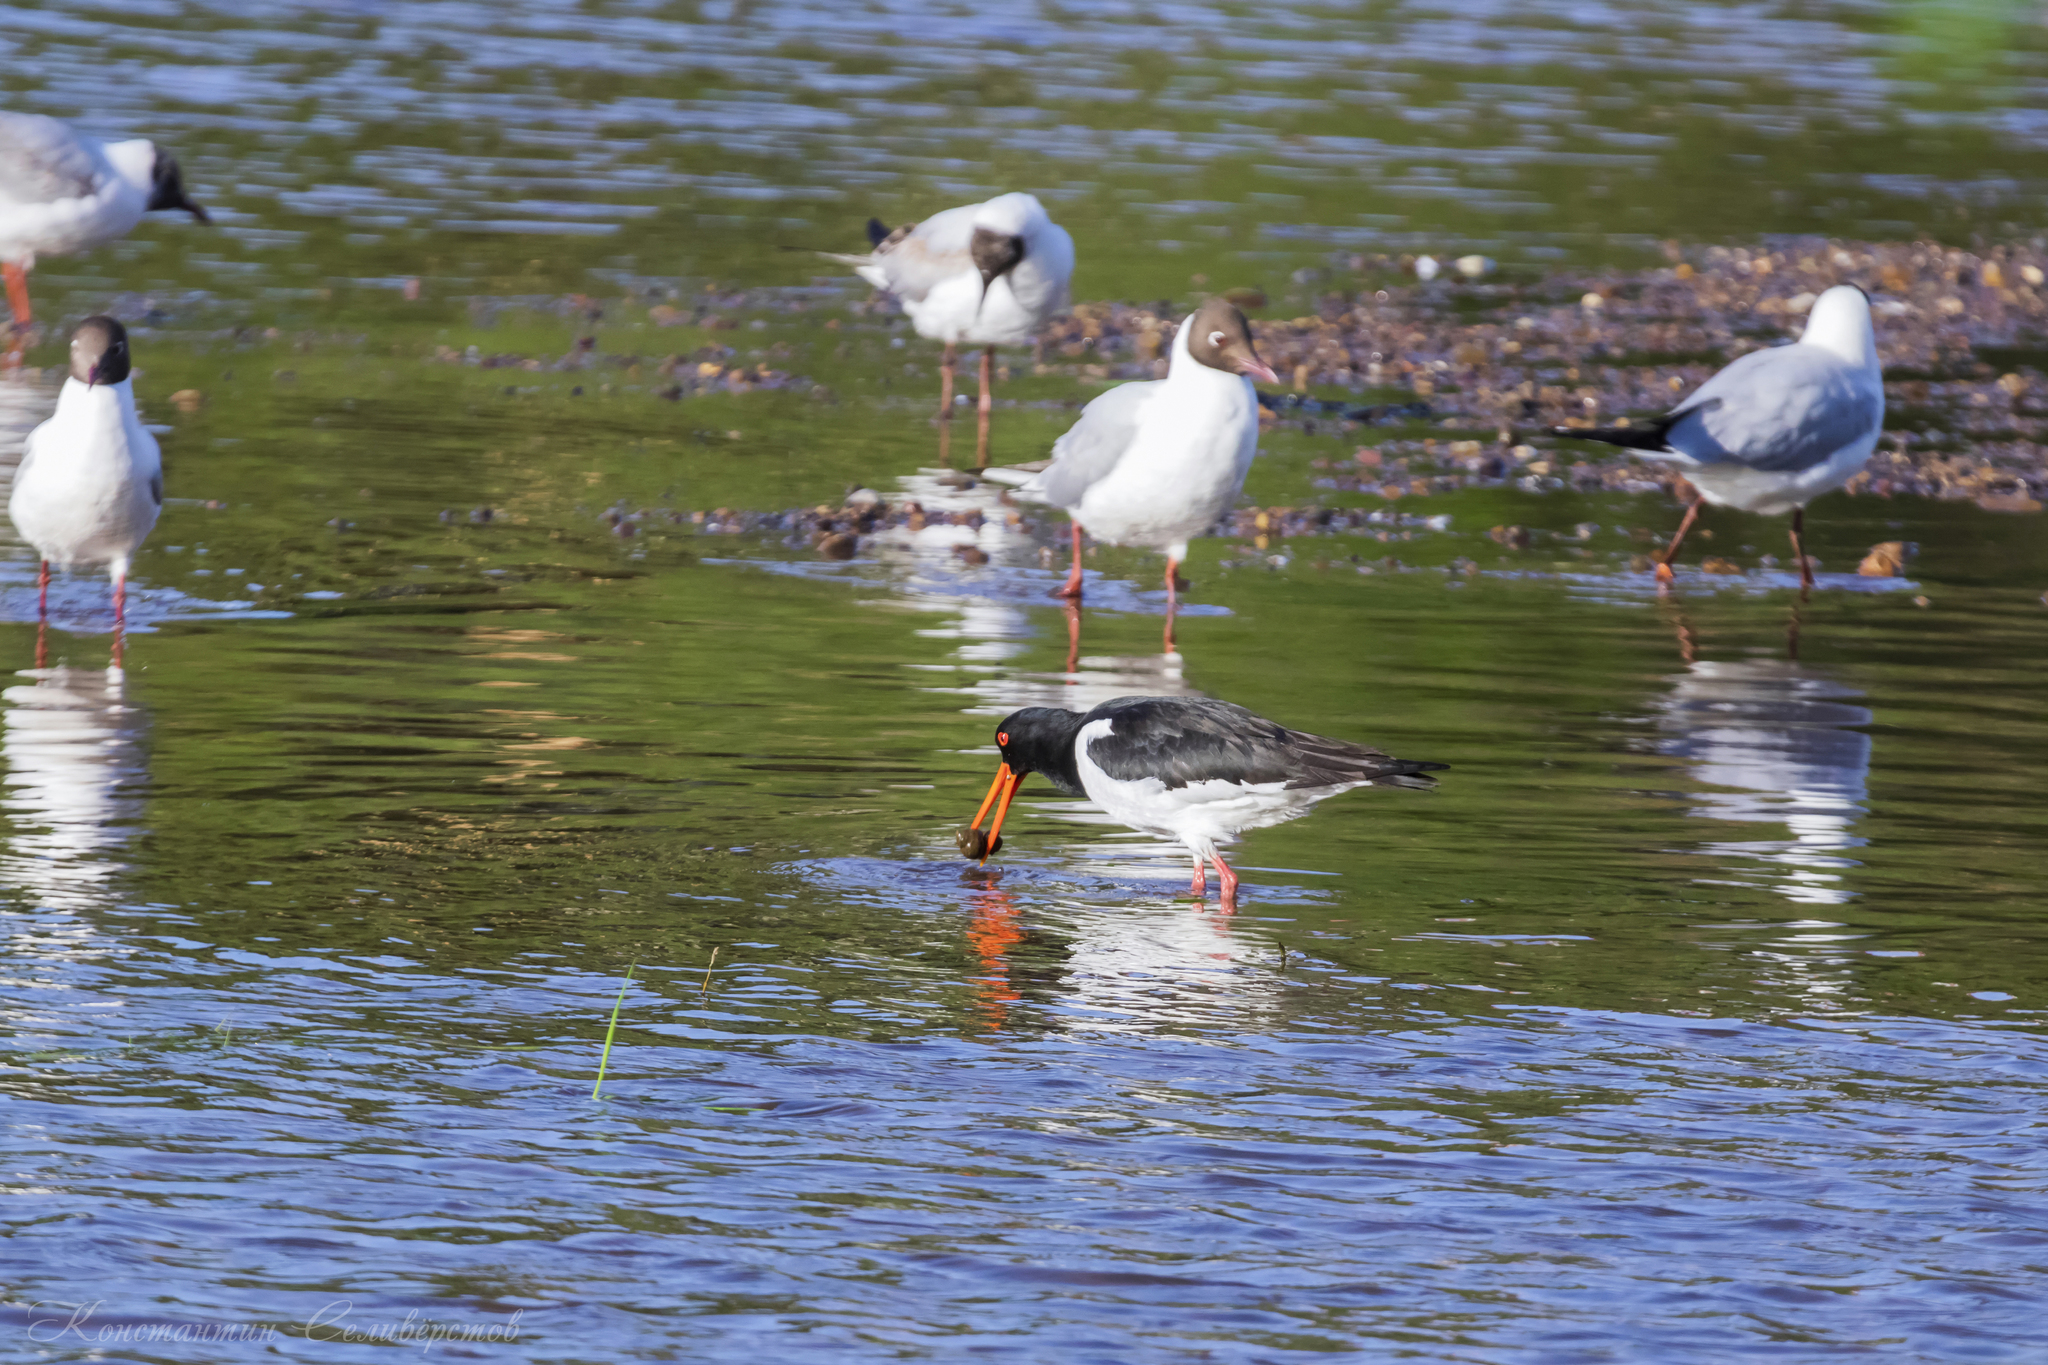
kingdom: Animalia
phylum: Chordata
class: Aves
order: Charadriiformes
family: Haematopodidae
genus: Haematopus
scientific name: Haematopus ostralegus
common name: Eurasian oystercatcher
